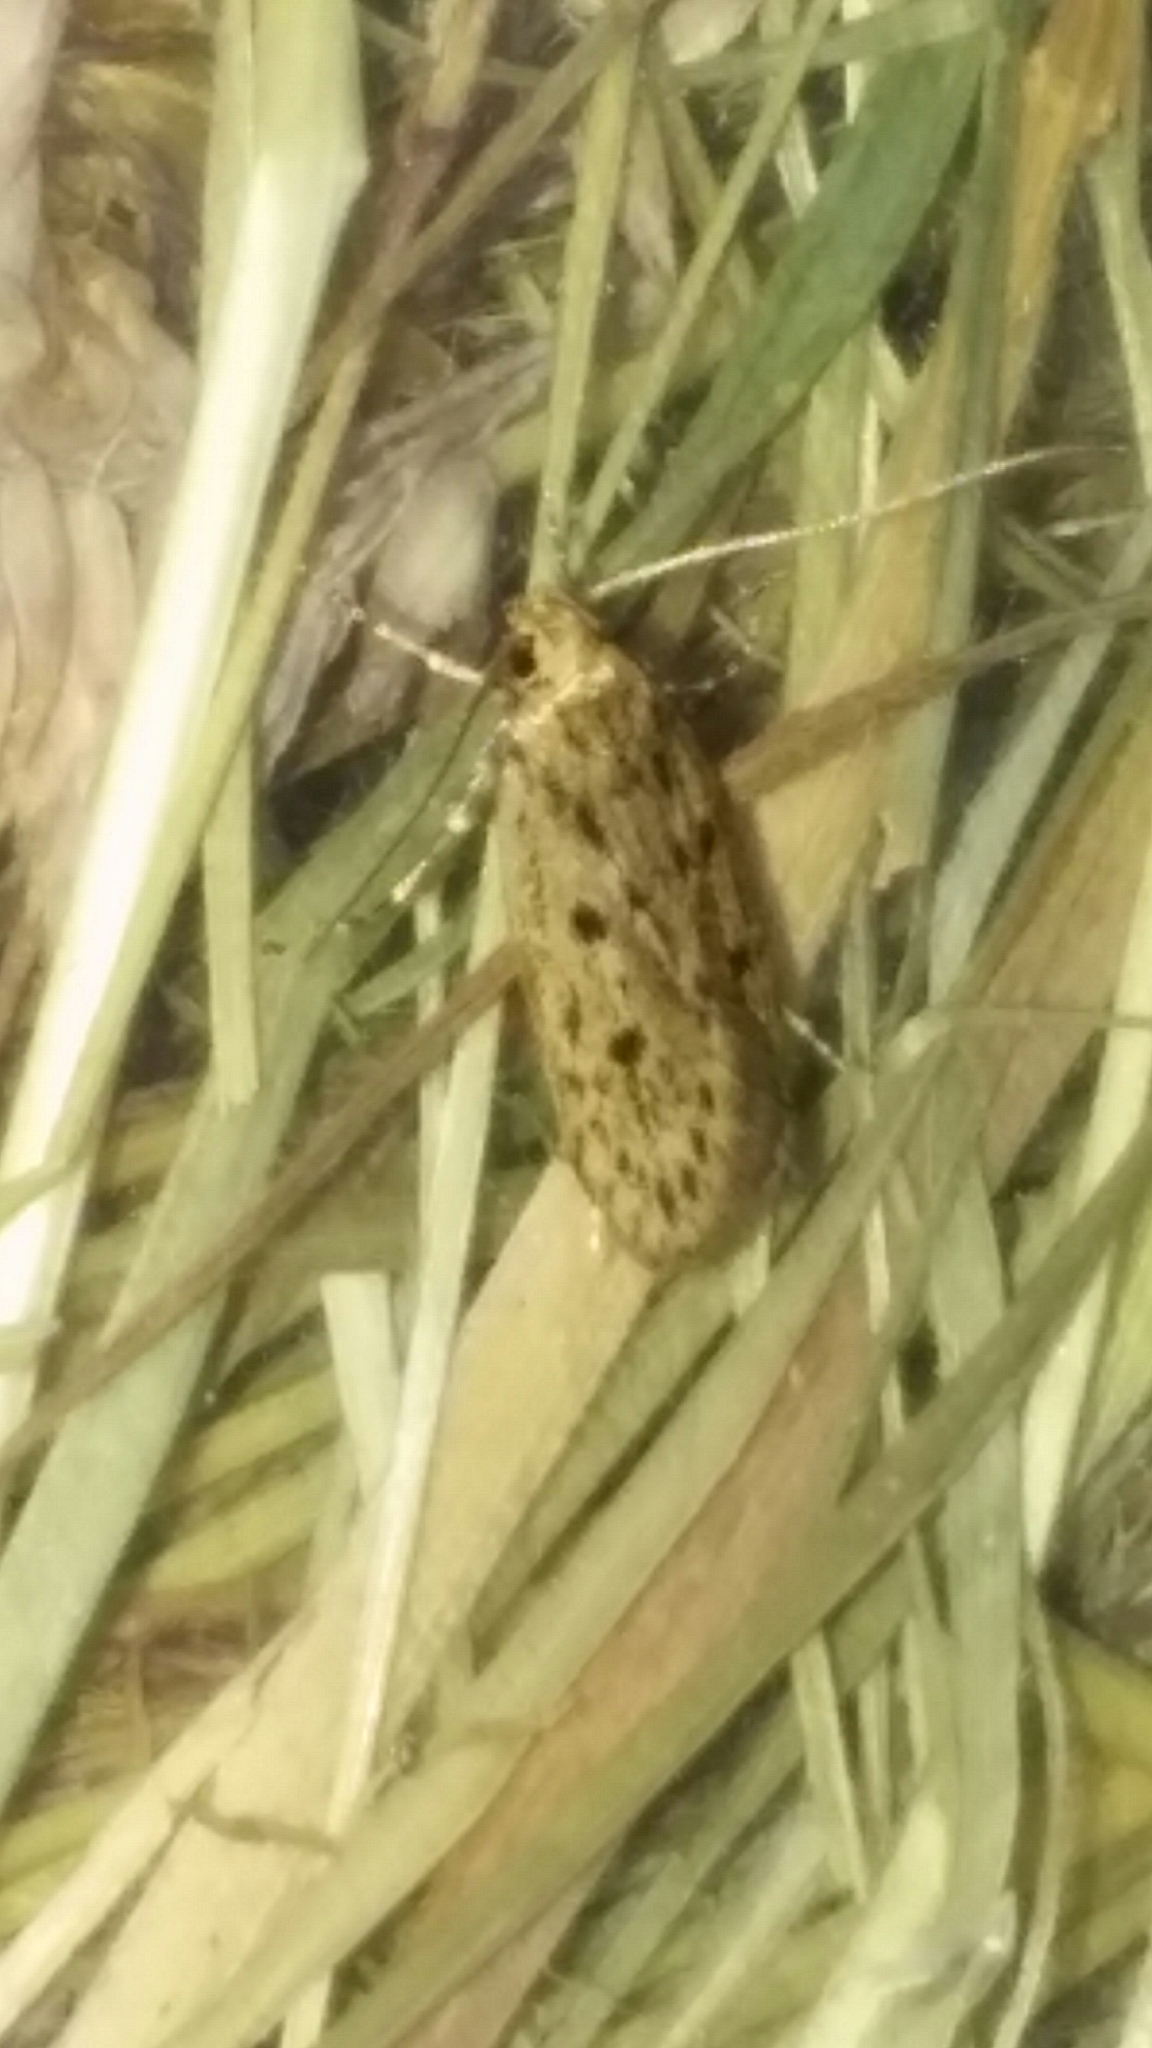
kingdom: Animalia
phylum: Arthropoda
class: Insecta
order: Lepidoptera
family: Oecophoridae
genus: Hofmannophila
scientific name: Hofmannophila pseudospretella
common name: Brown house moth
